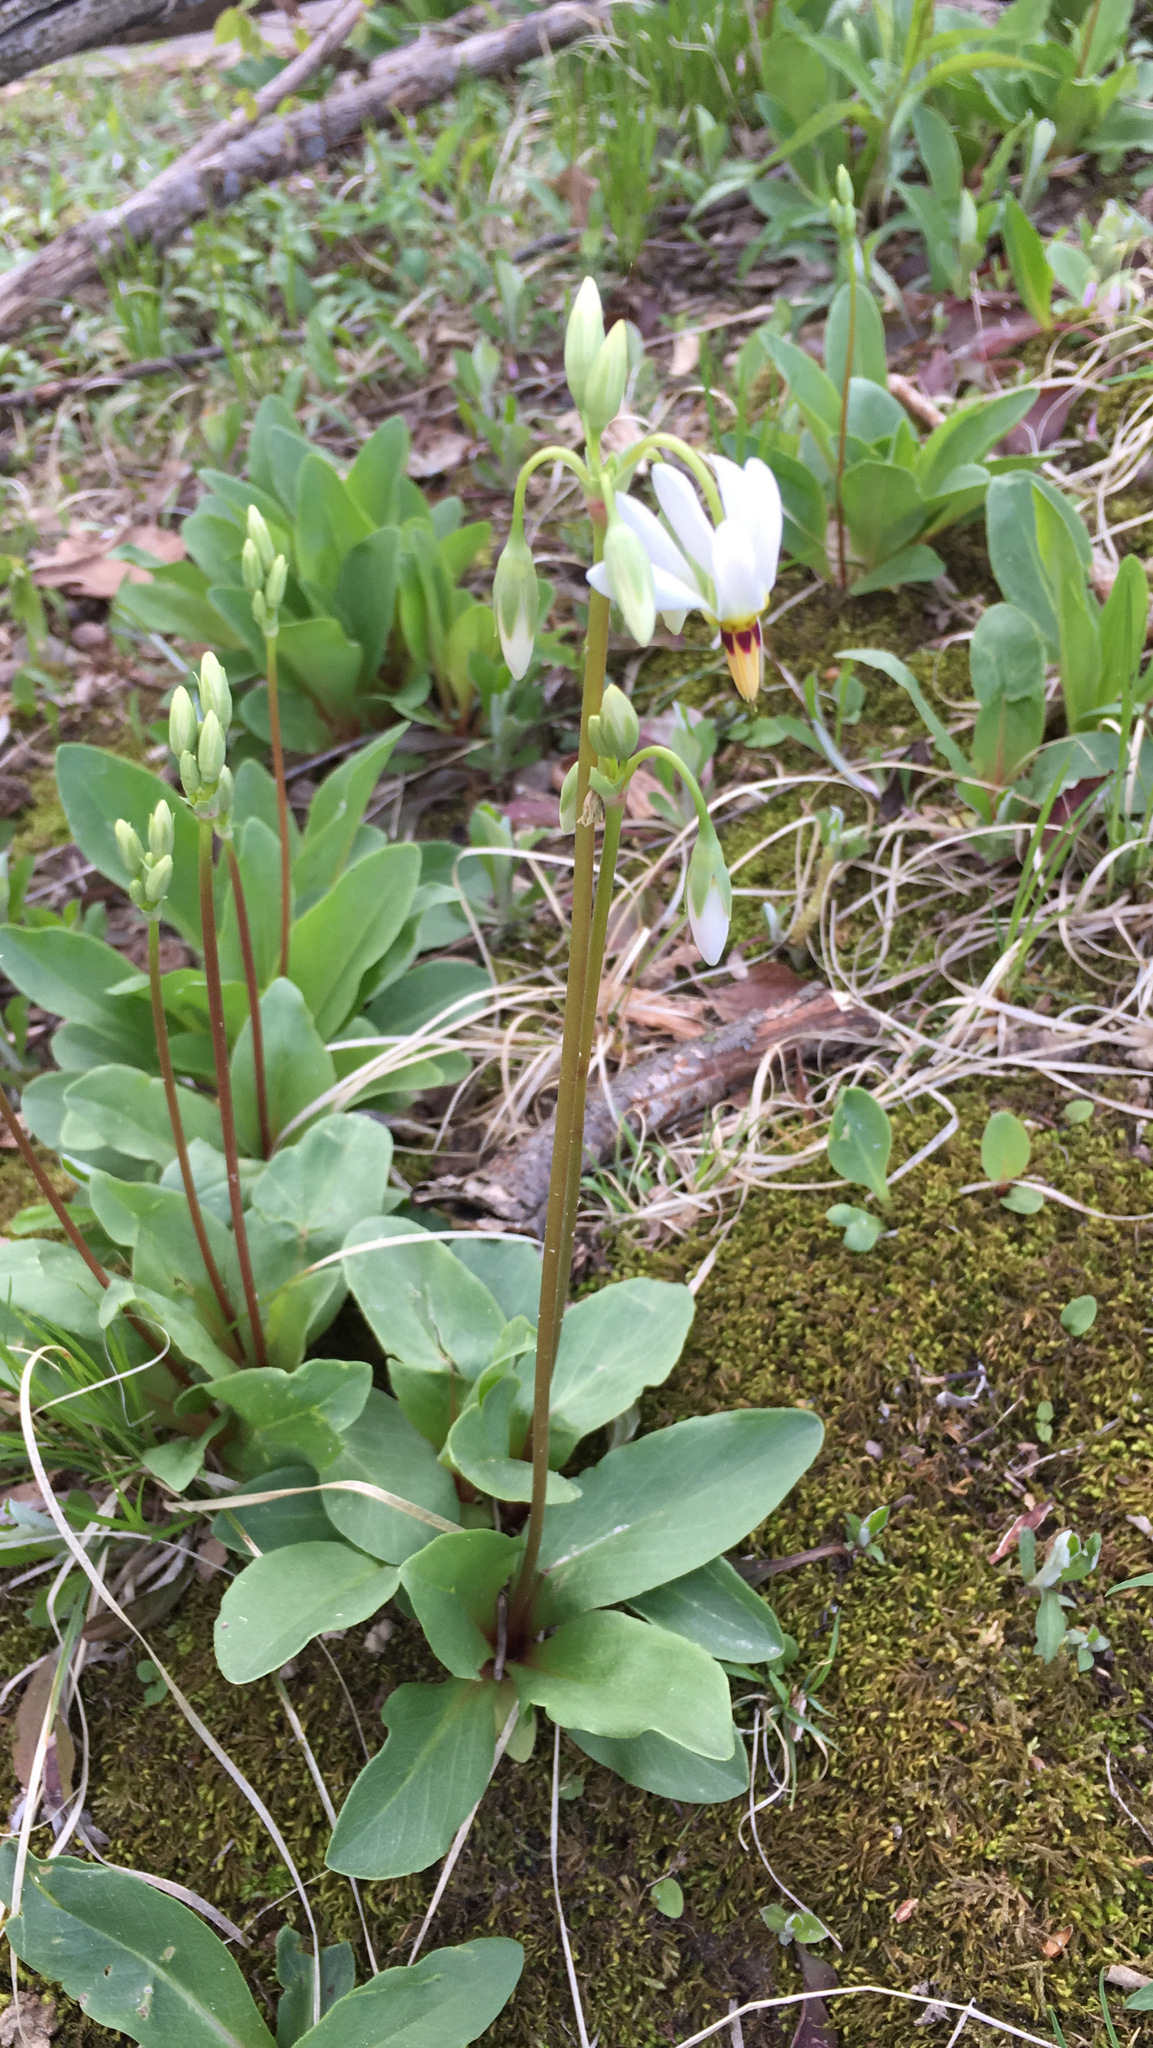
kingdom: Plantae
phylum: Tracheophyta
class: Magnoliopsida
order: Ericales
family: Primulaceae
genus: Dodecatheon
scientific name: Dodecatheon meadia
